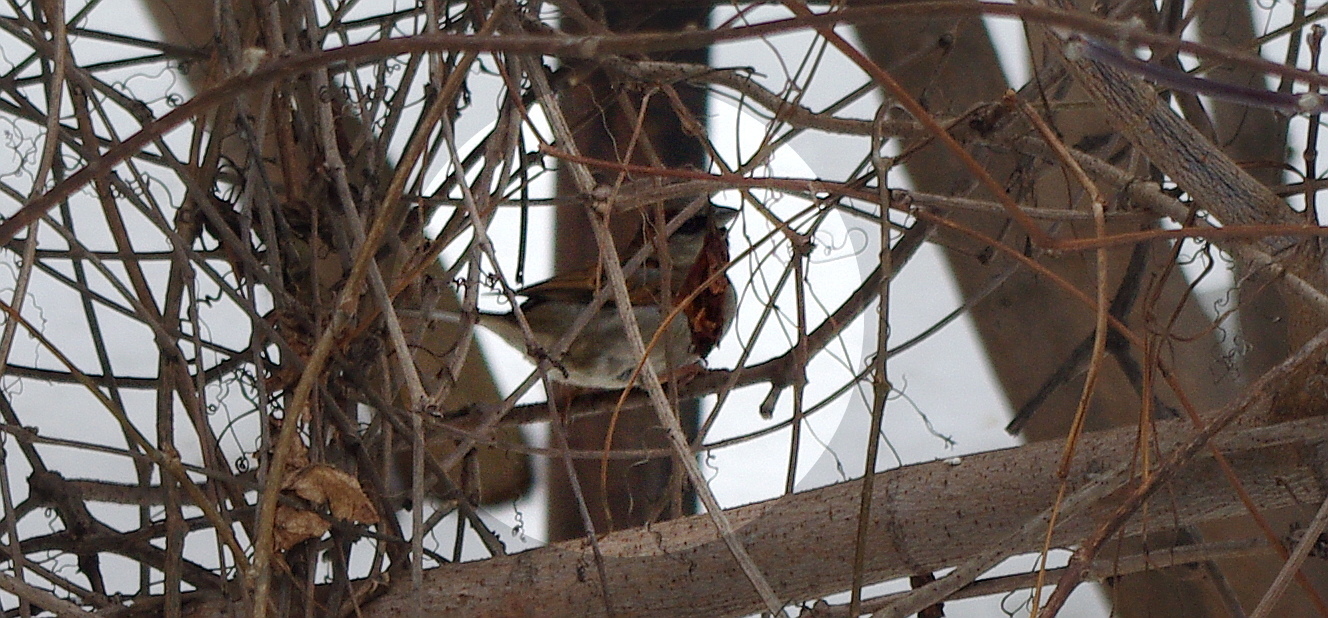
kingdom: Animalia
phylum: Chordata
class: Aves
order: Passeriformes
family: Passeridae
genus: Passer
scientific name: Passer domesticus
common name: House sparrow
